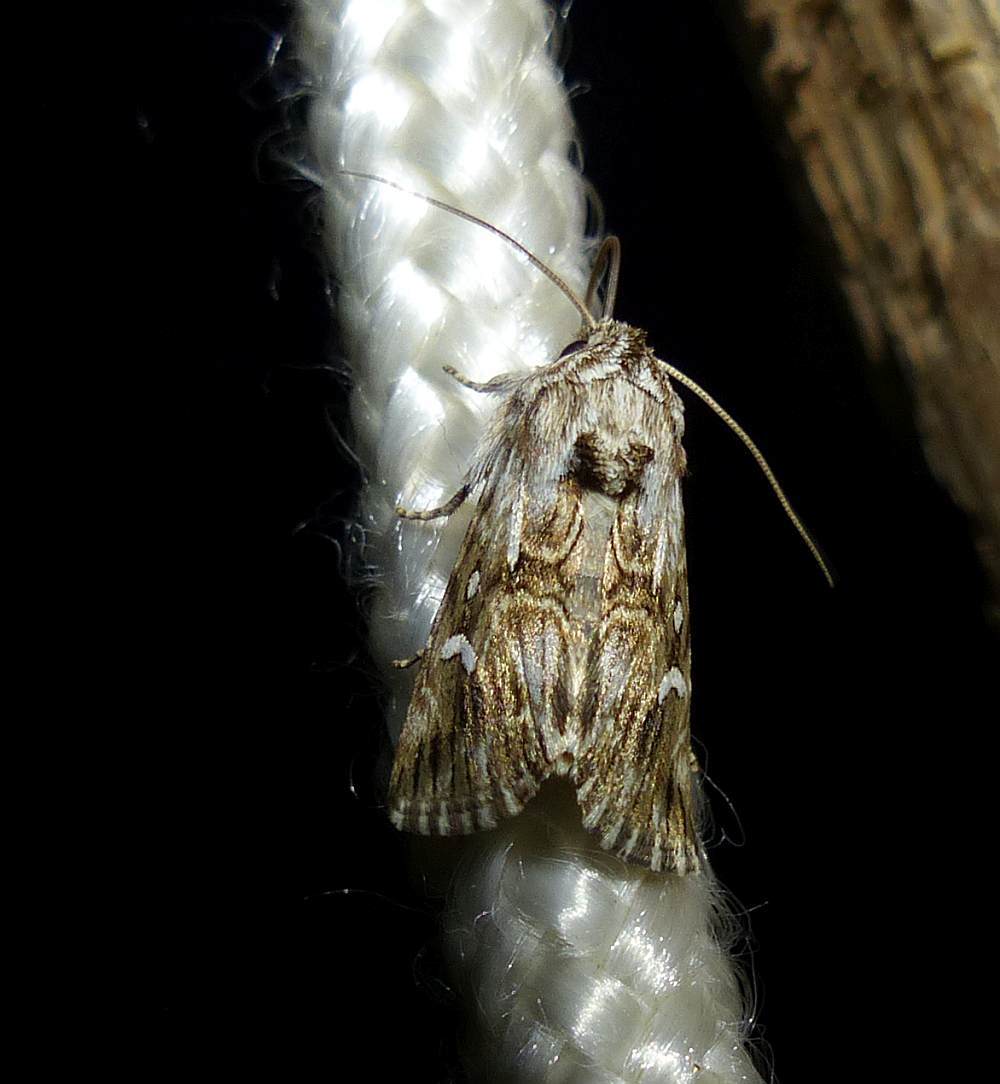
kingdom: Animalia
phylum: Arthropoda
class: Insecta
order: Lepidoptera
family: Noctuidae
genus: Calophasia
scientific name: Calophasia lunula
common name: Toadflax brocade
